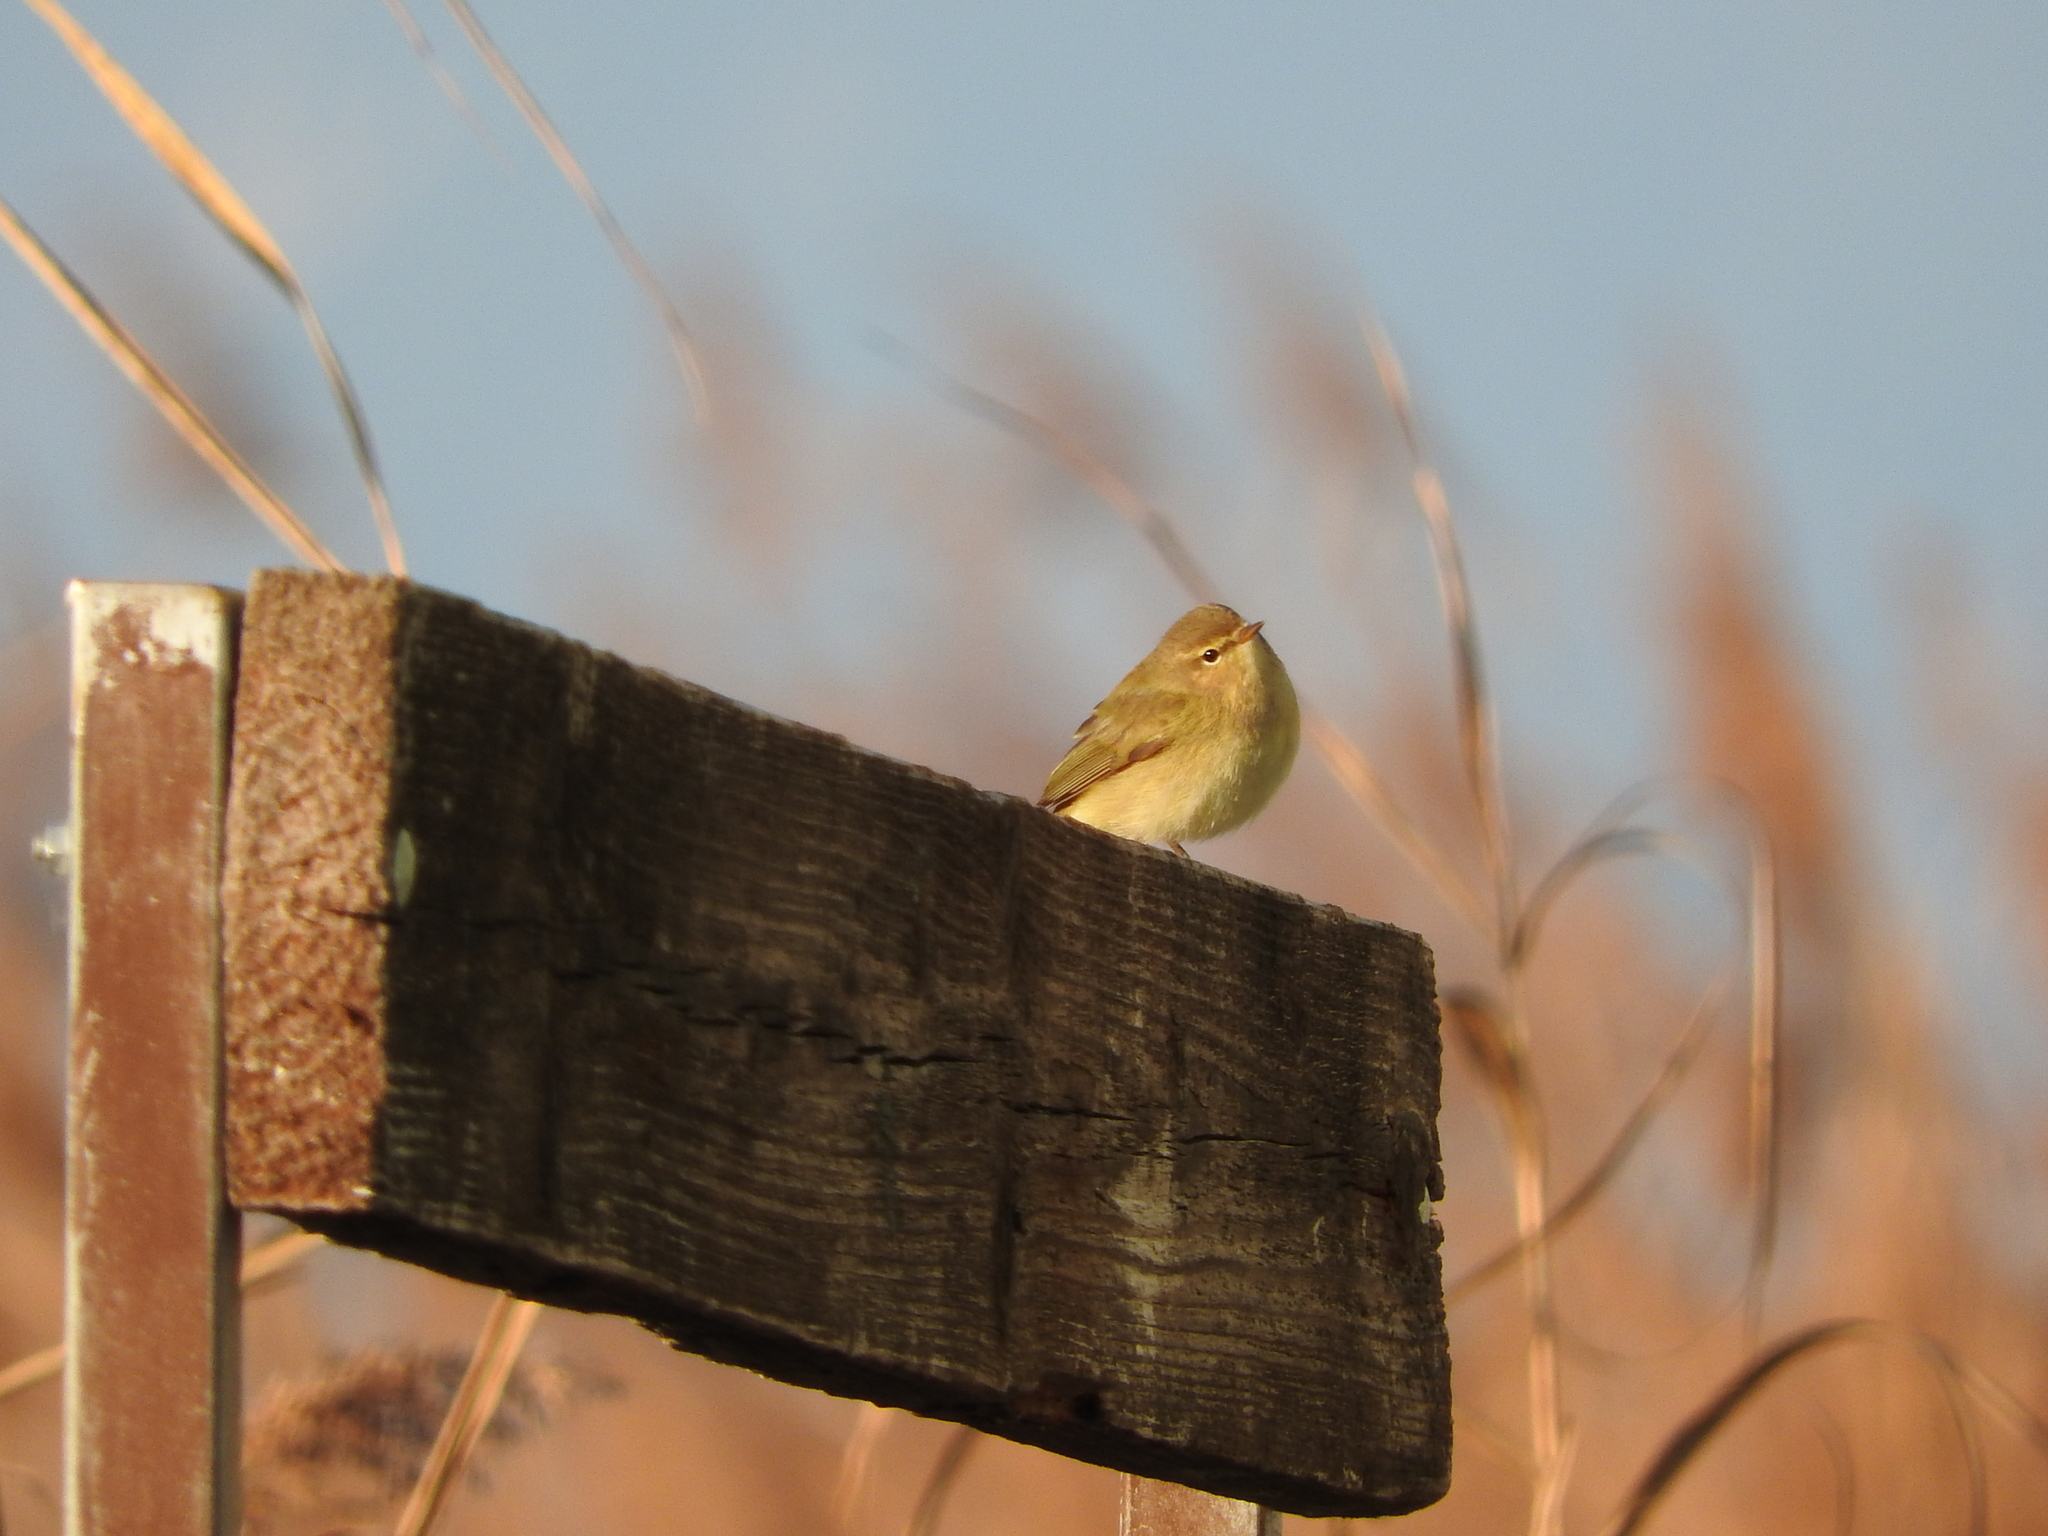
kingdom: Animalia
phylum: Chordata
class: Aves
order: Passeriformes
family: Phylloscopidae
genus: Phylloscopus
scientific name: Phylloscopus collybita
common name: Common chiffchaff
